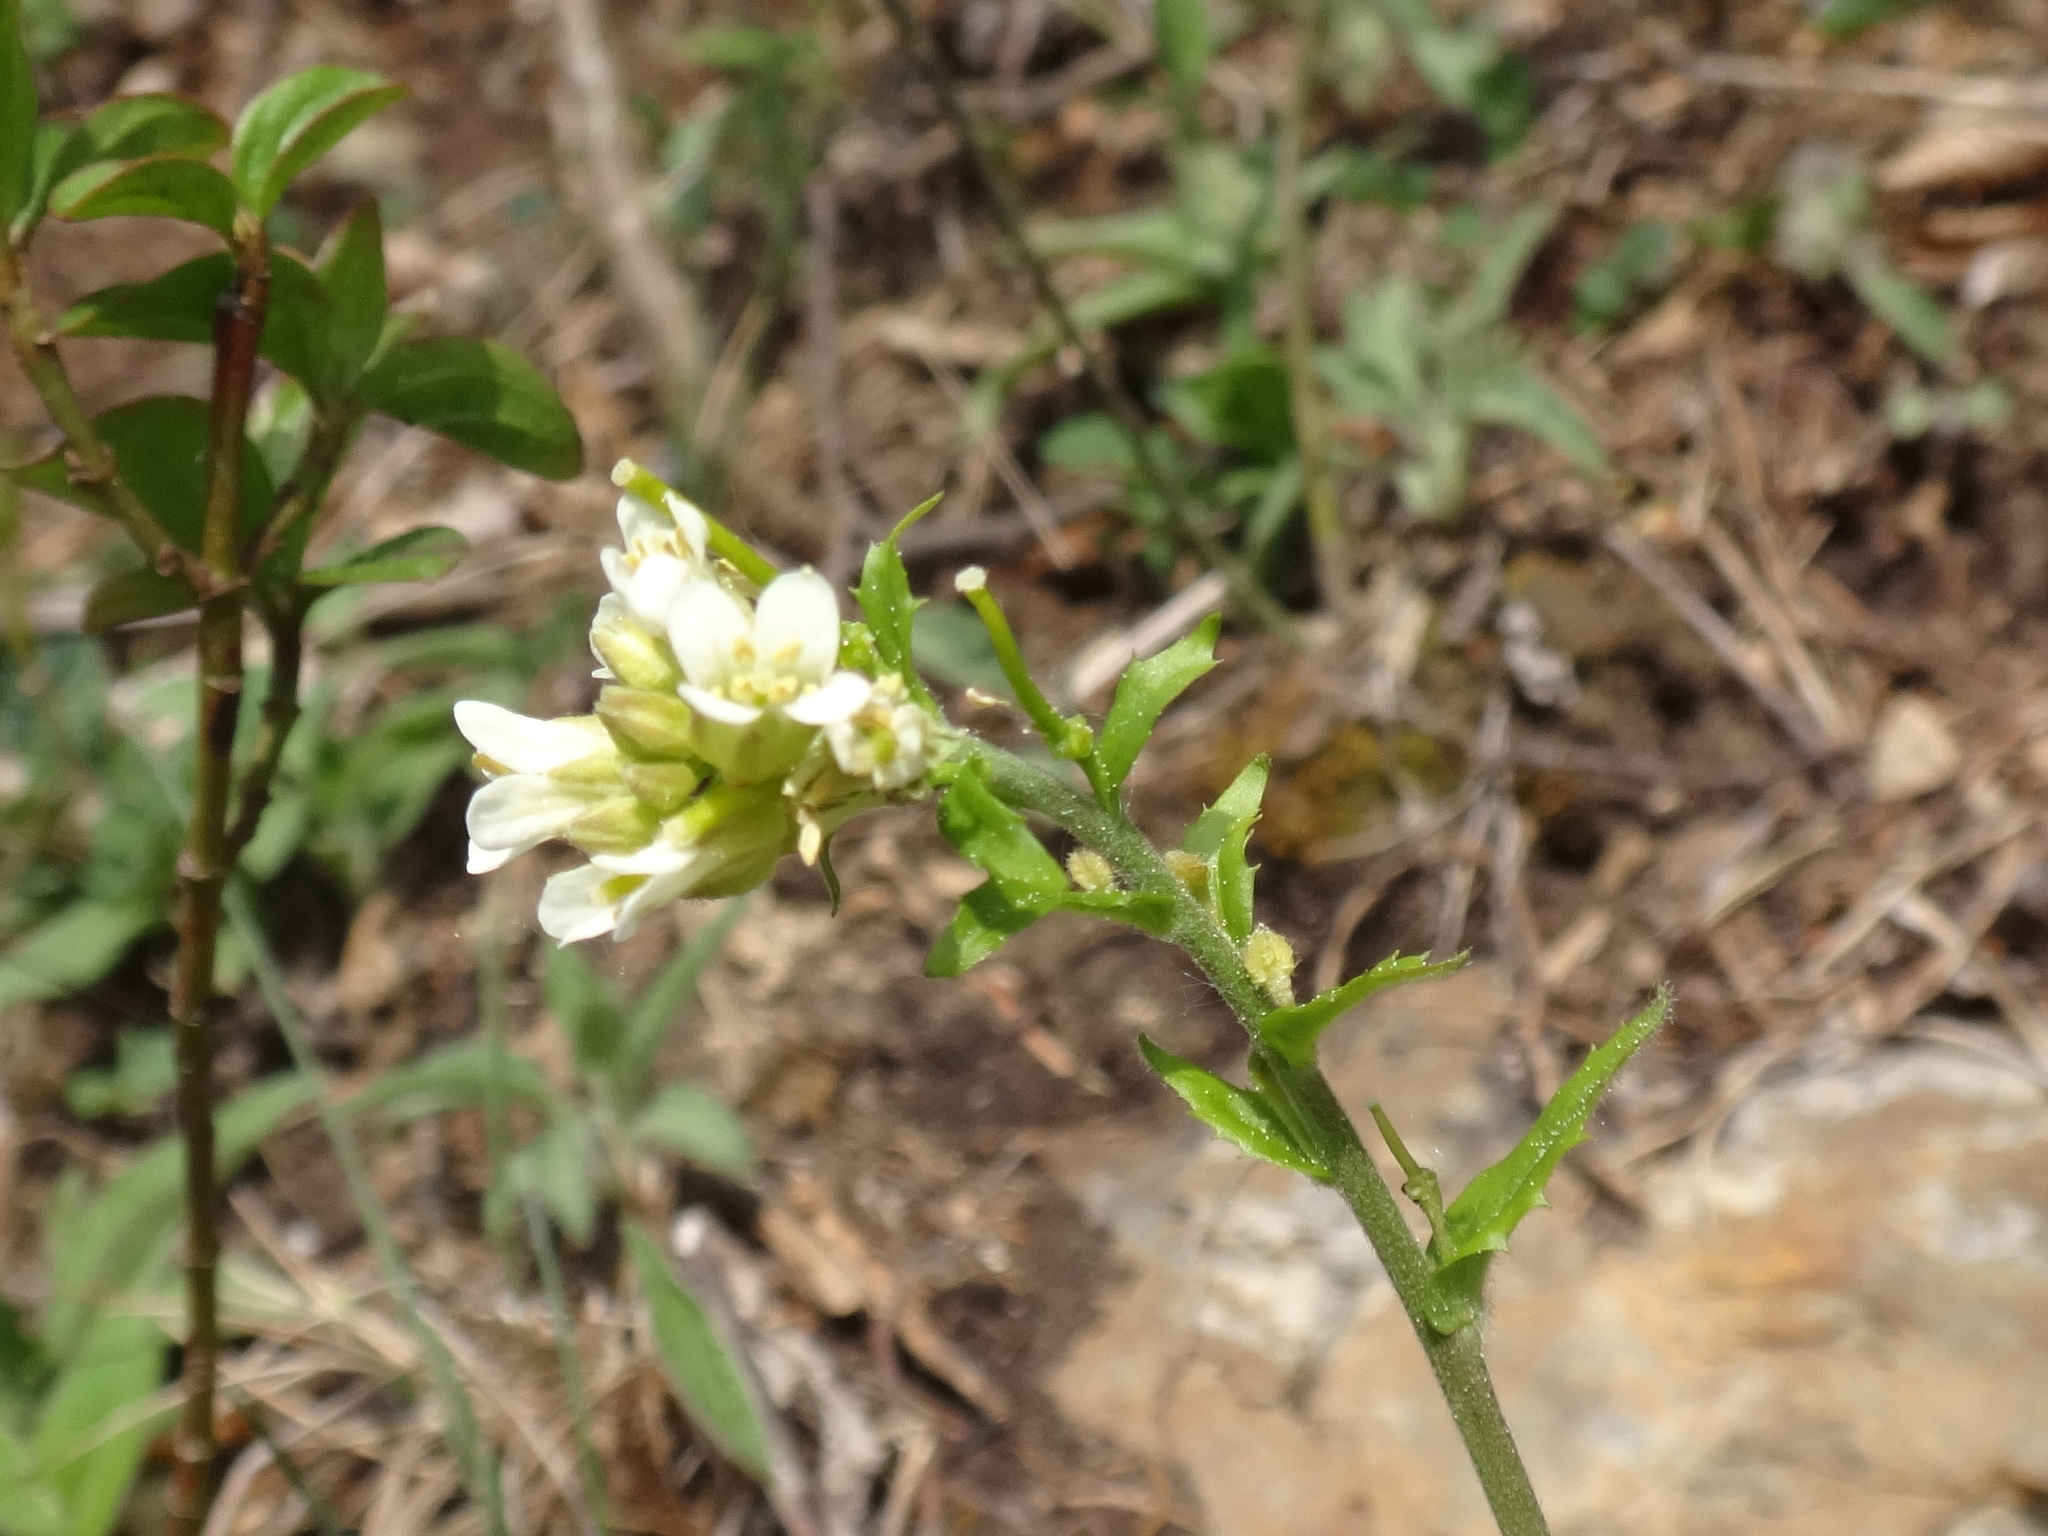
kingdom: Plantae
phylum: Tracheophyta
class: Magnoliopsida
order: Brassicales
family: Brassicaceae
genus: Arabis
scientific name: Arabis hirsuta
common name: Hairy rock-cress
